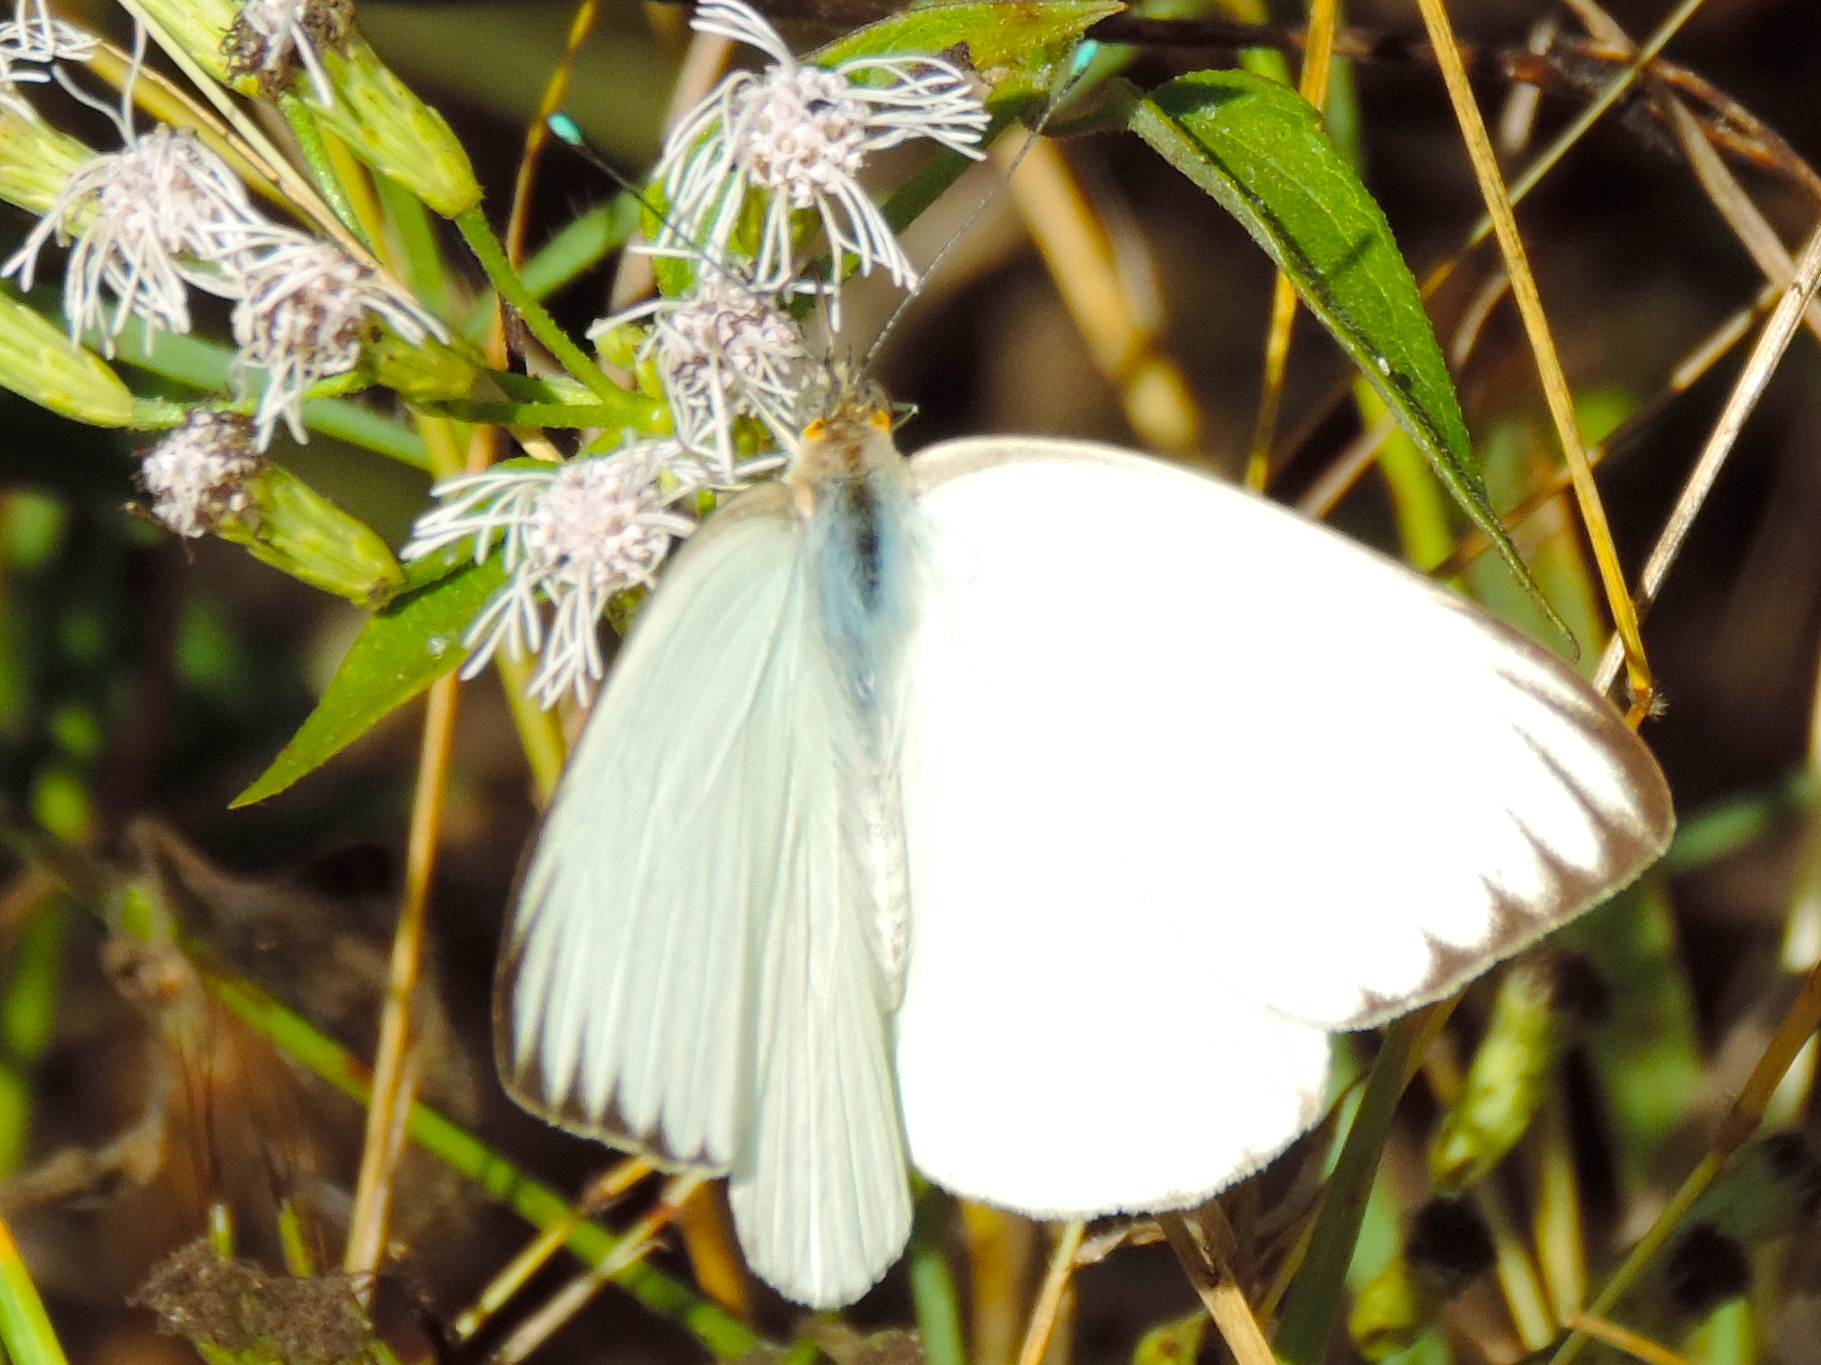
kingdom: Animalia
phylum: Arthropoda
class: Insecta
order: Lepidoptera
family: Pieridae
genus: Ascia
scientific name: Ascia monuste
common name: Great southern white
